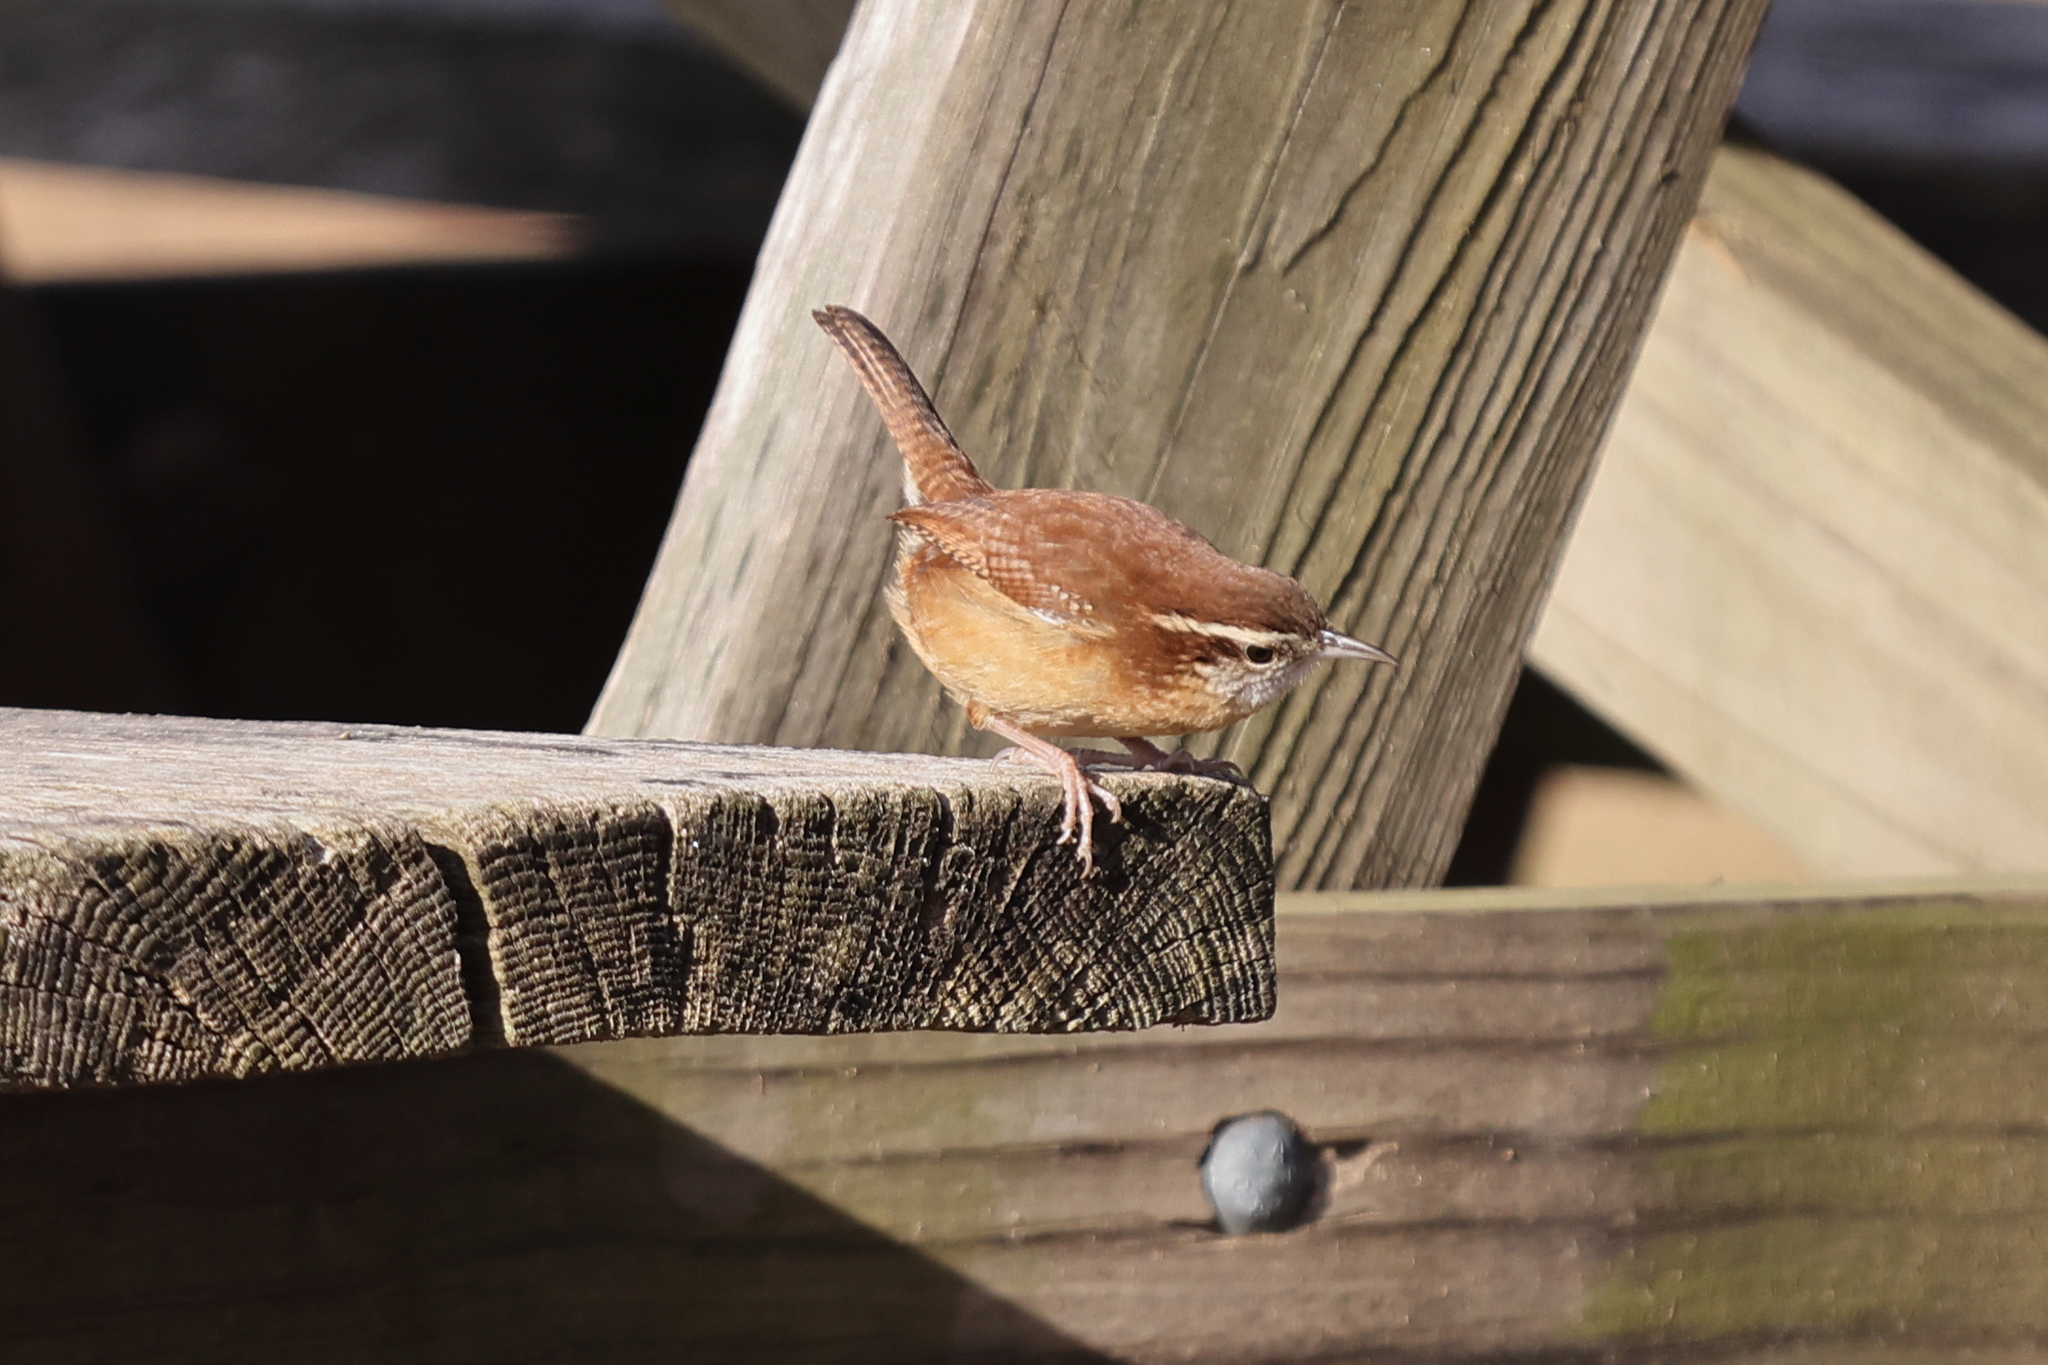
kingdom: Animalia
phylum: Chordata
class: Aves
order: Passeriformes
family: Troglodytidae
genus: Thryothorus
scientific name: Thryothorus ludovicianus
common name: Carolina wren
